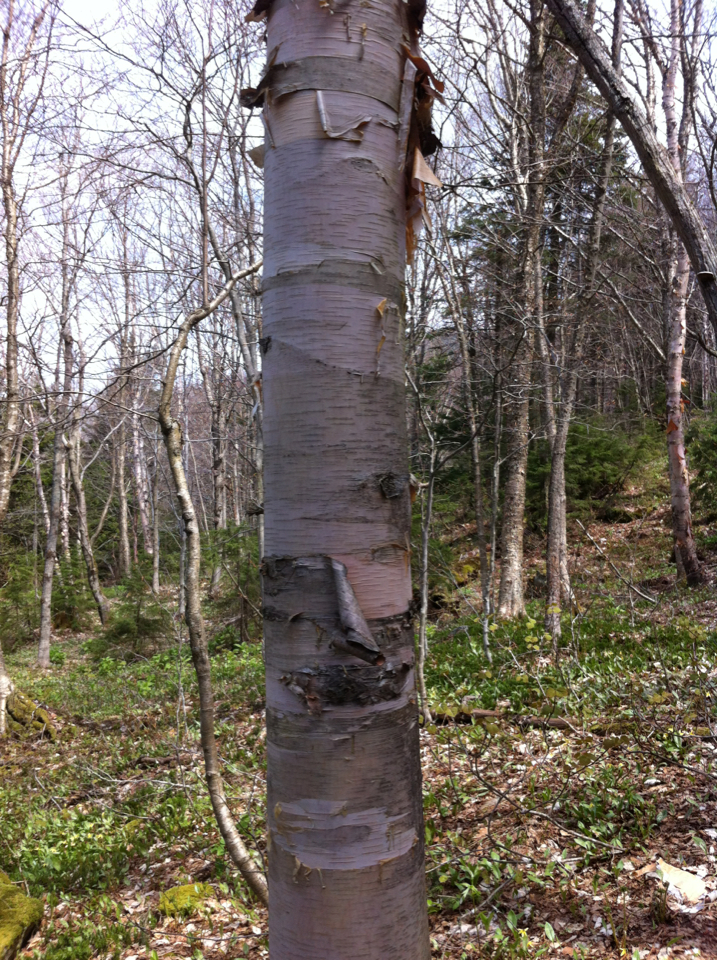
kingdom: Plantae
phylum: Tracheophyta
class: Magnoliopsida
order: Fagales
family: Betulaceae
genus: Betula
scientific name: Betula cordifolia
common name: Mountain white birch
